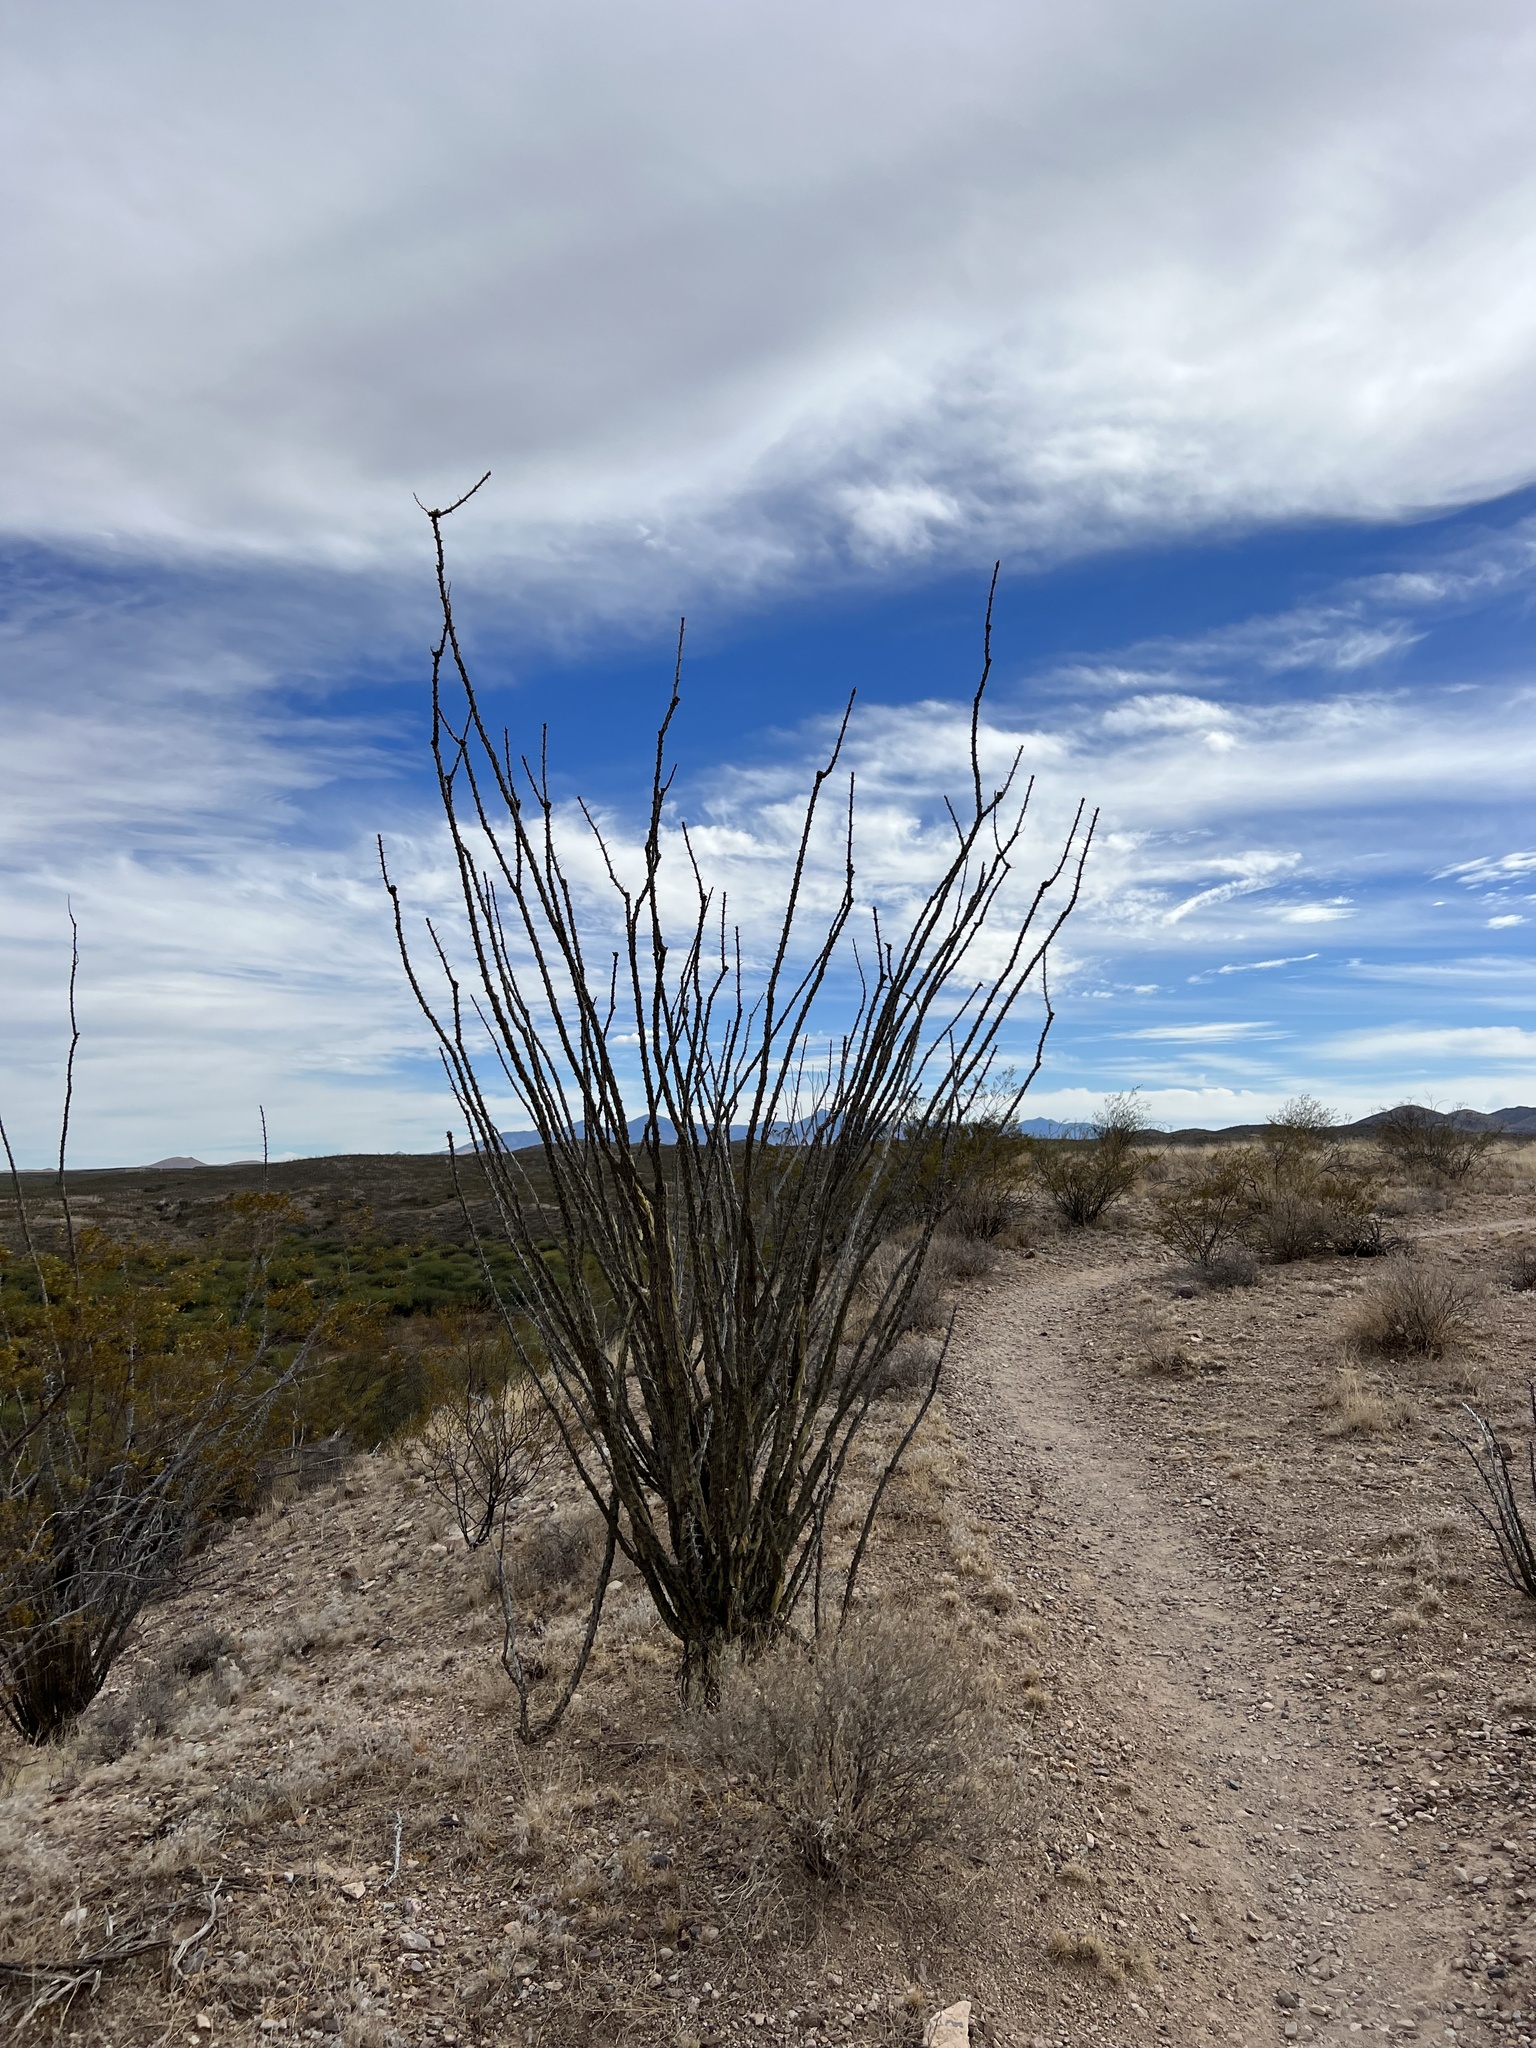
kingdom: Plantae
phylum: Tracheophyta
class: Magnoliopsida
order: Ericales
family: Fouquieriaceae
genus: Fouquieria
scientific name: Fouquieria splendens
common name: Vine-cactus
